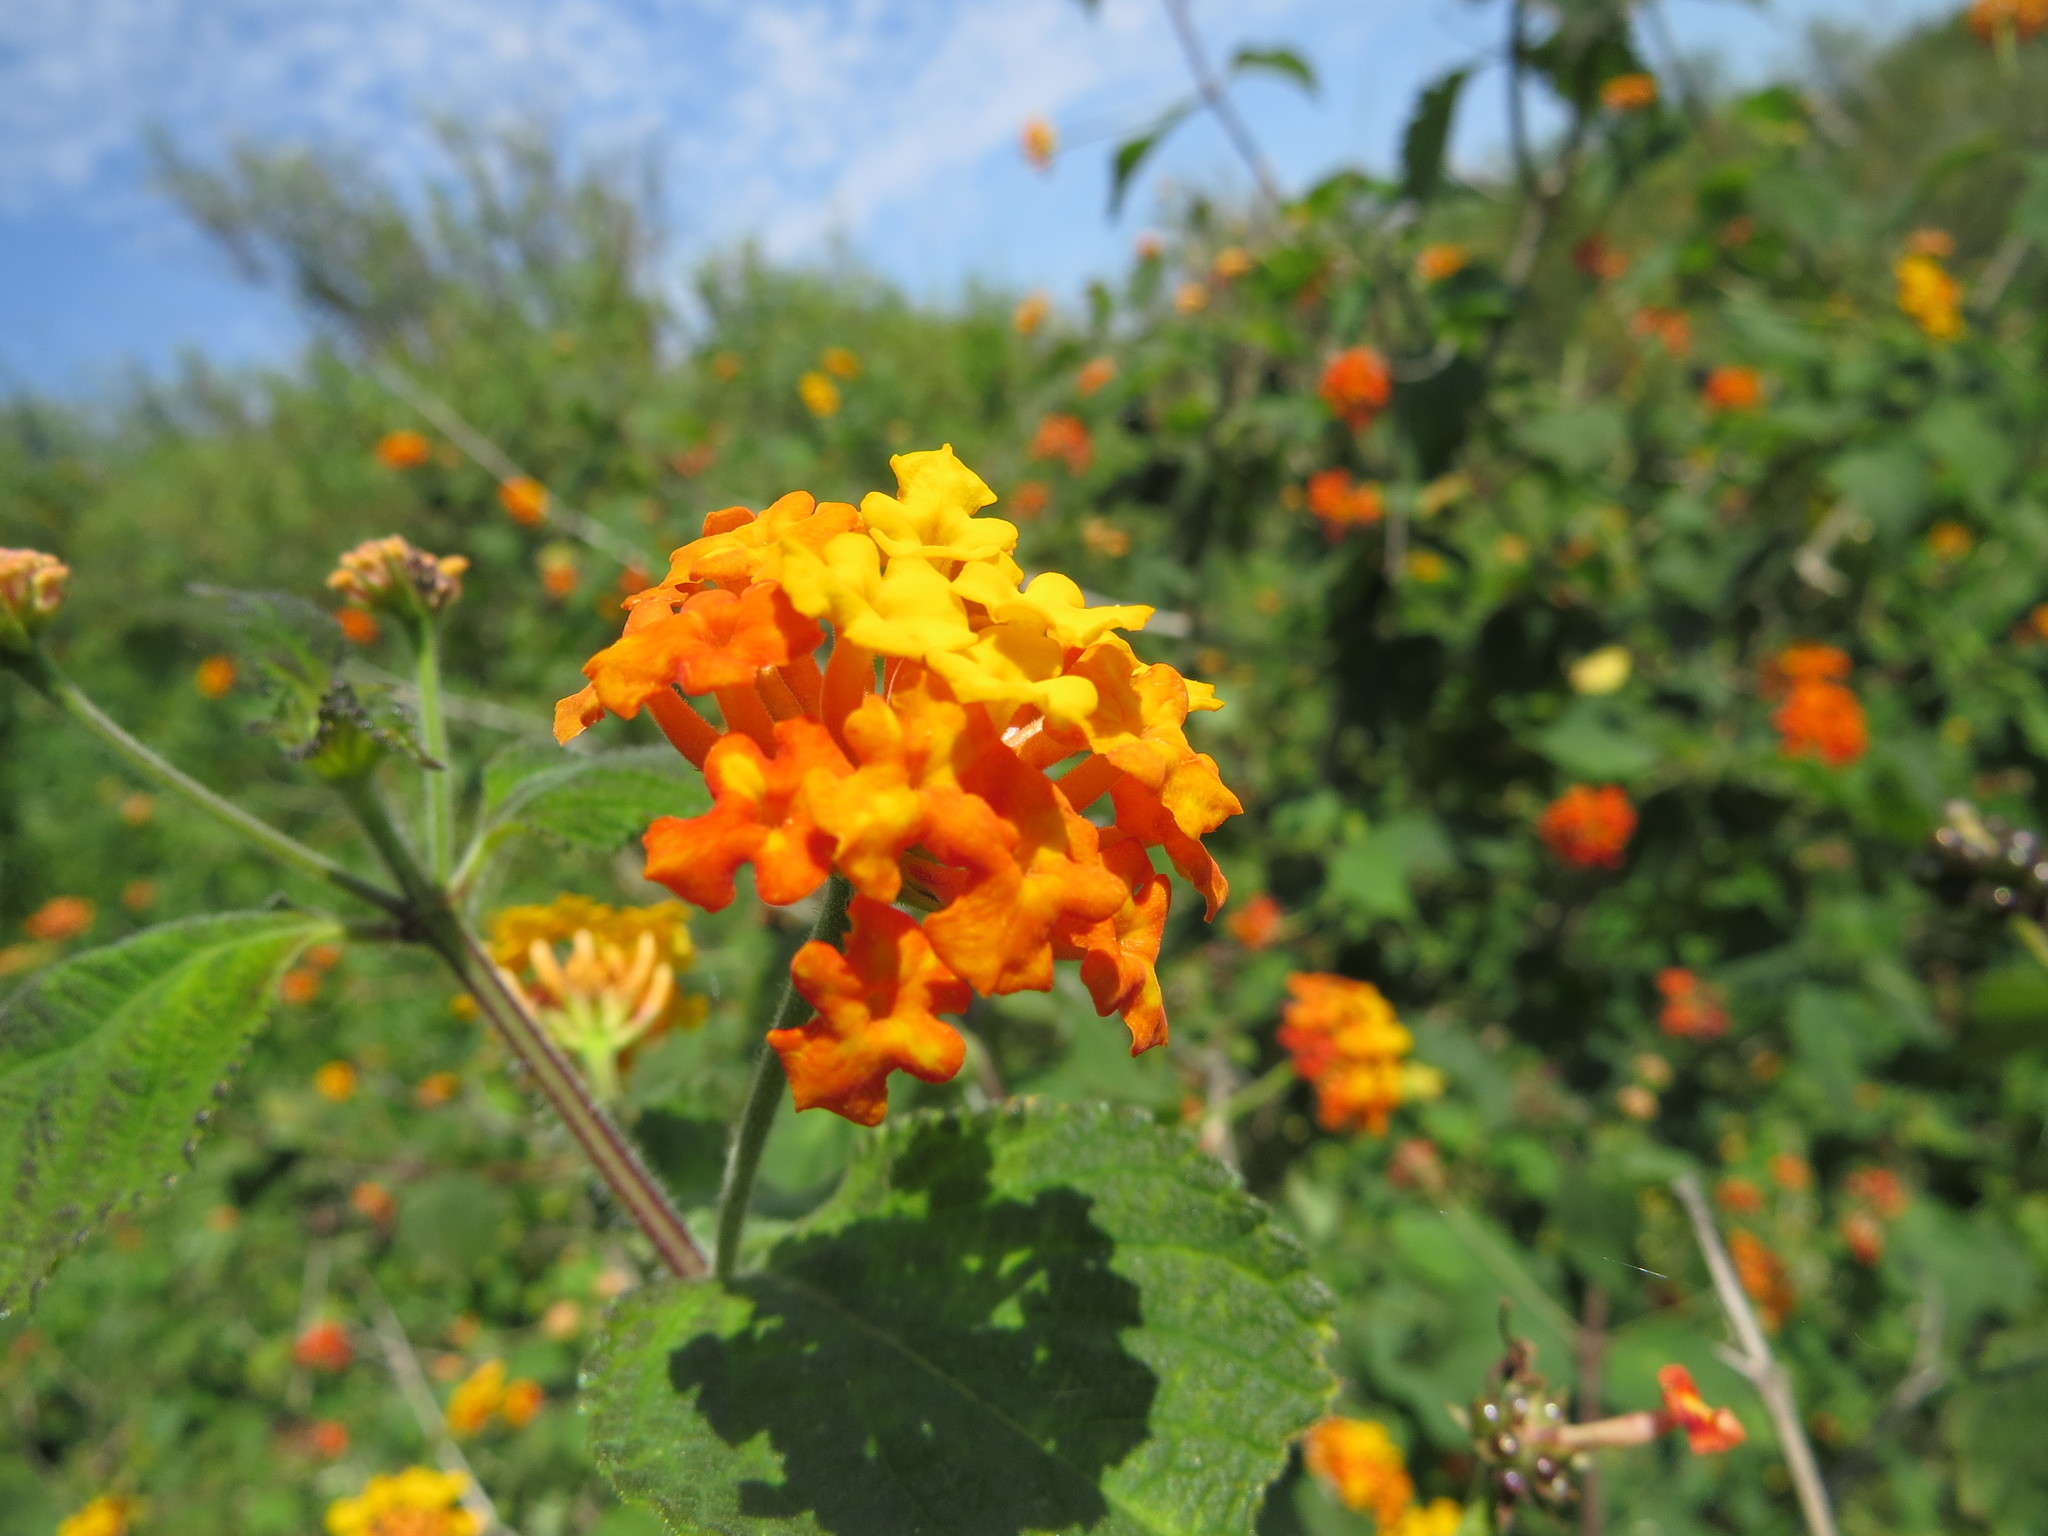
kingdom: Plantae
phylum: Tracheophyta
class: Magnoliopsida
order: Lamiales
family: Verbenaceae
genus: Lantana
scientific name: Lantana camara
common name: Lantana
